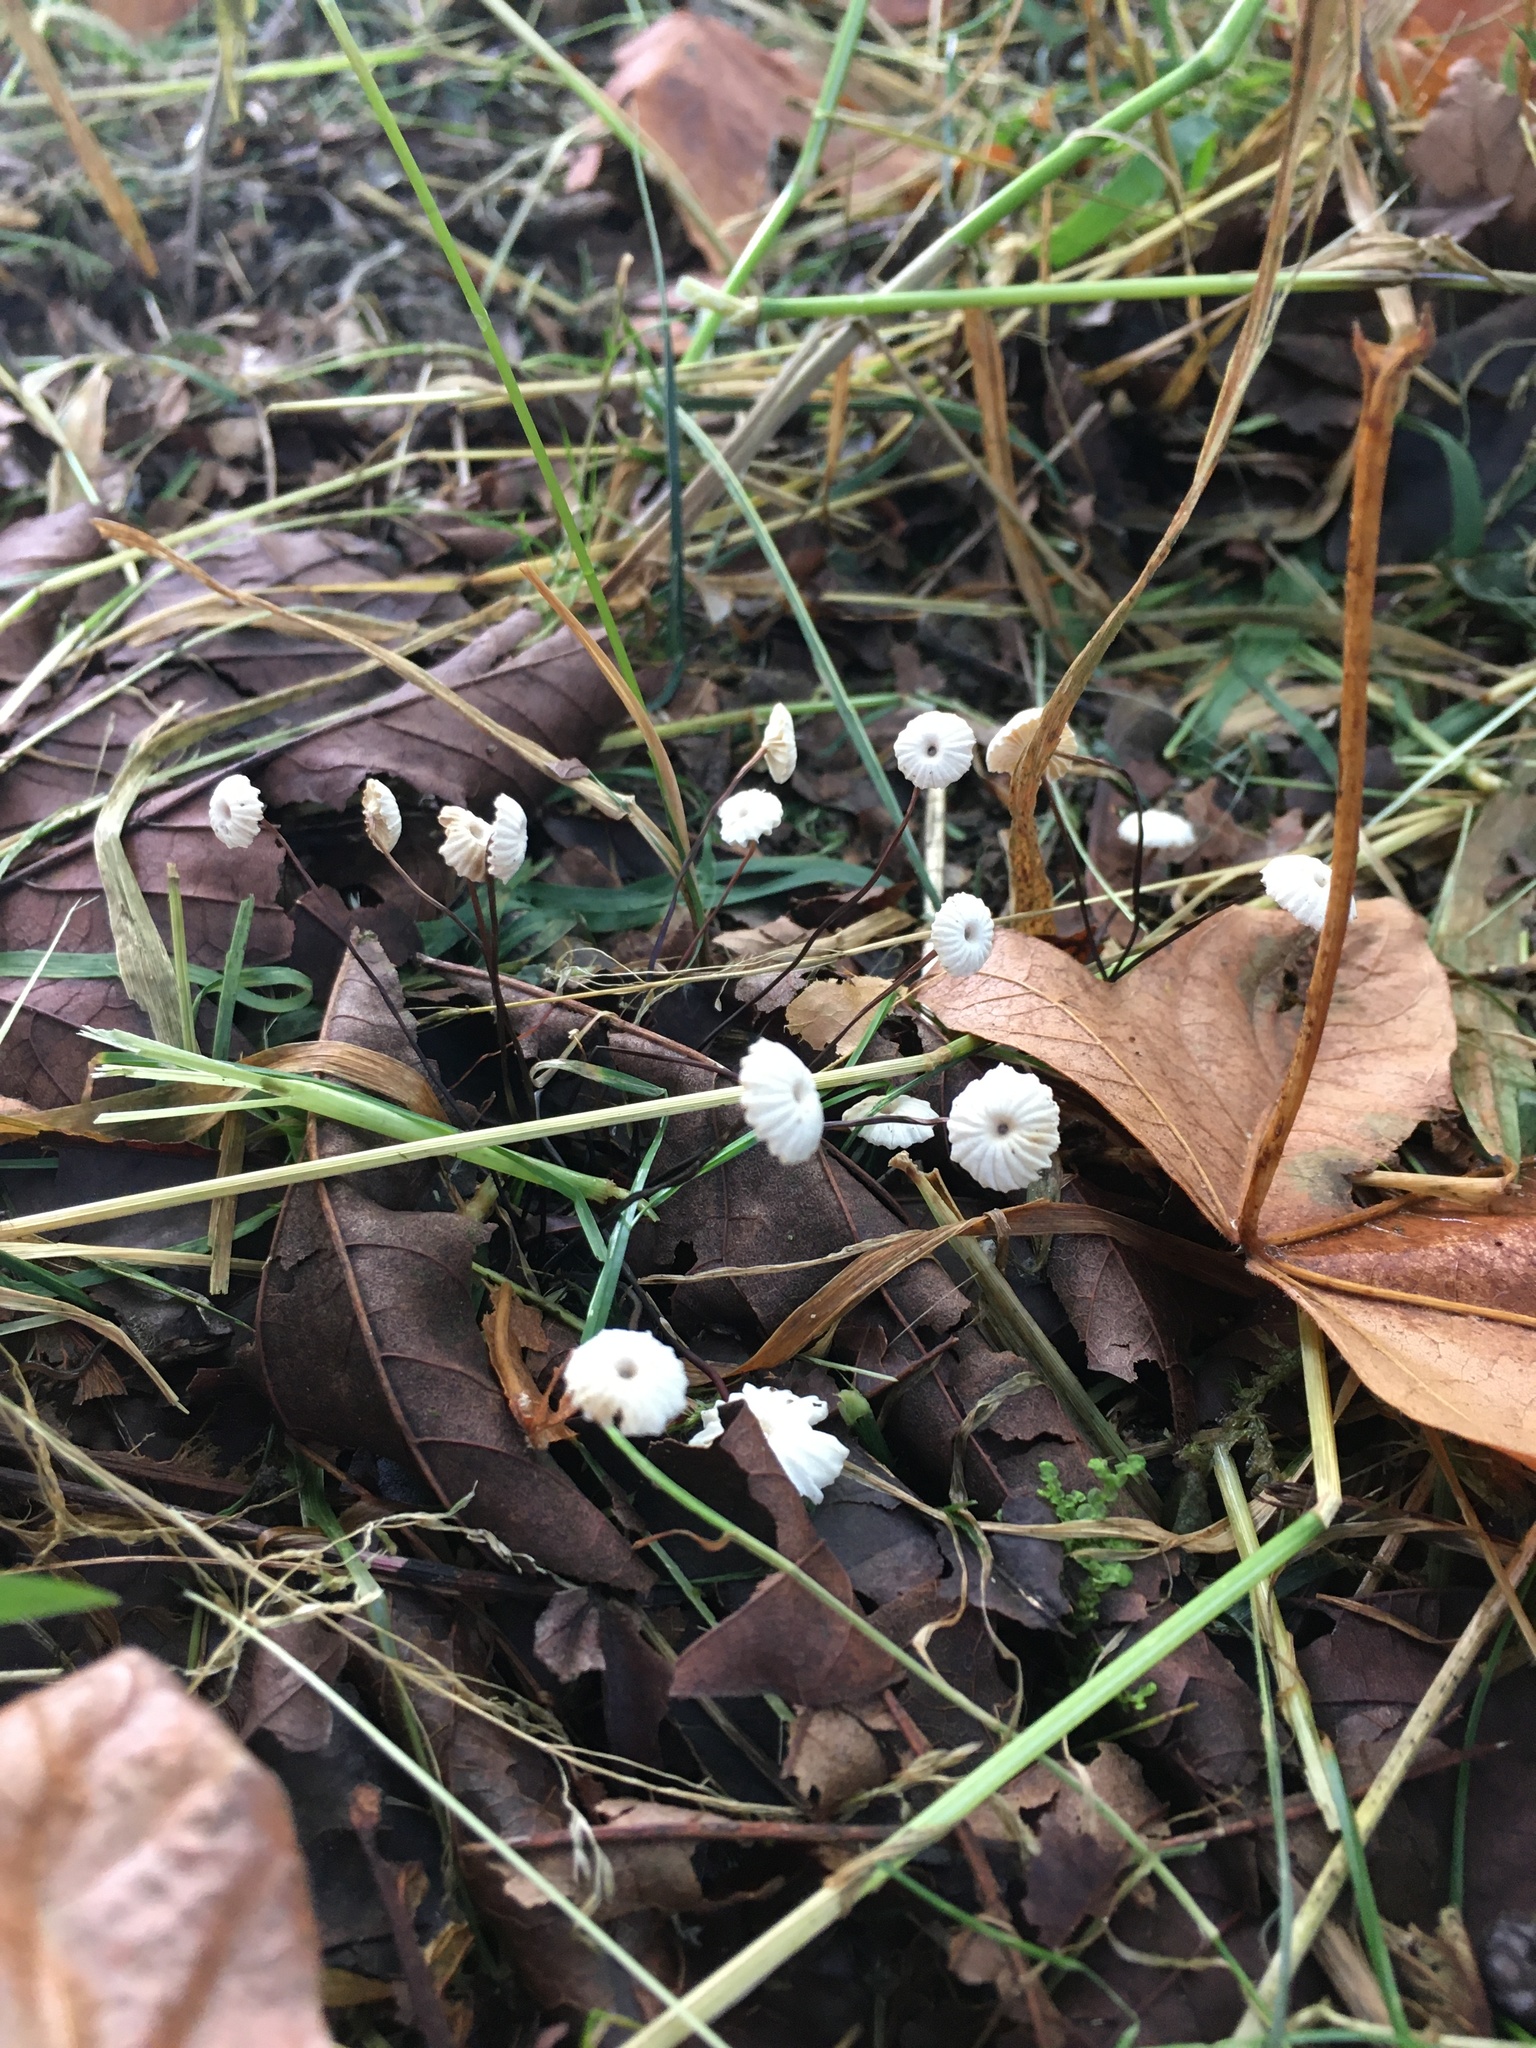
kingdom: Fungi
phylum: Basidiomycota
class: Agaricomycetes
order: Agaricales
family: Marasmiaceae
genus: Marasmius
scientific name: Marasmius rotula
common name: Collared parachute
